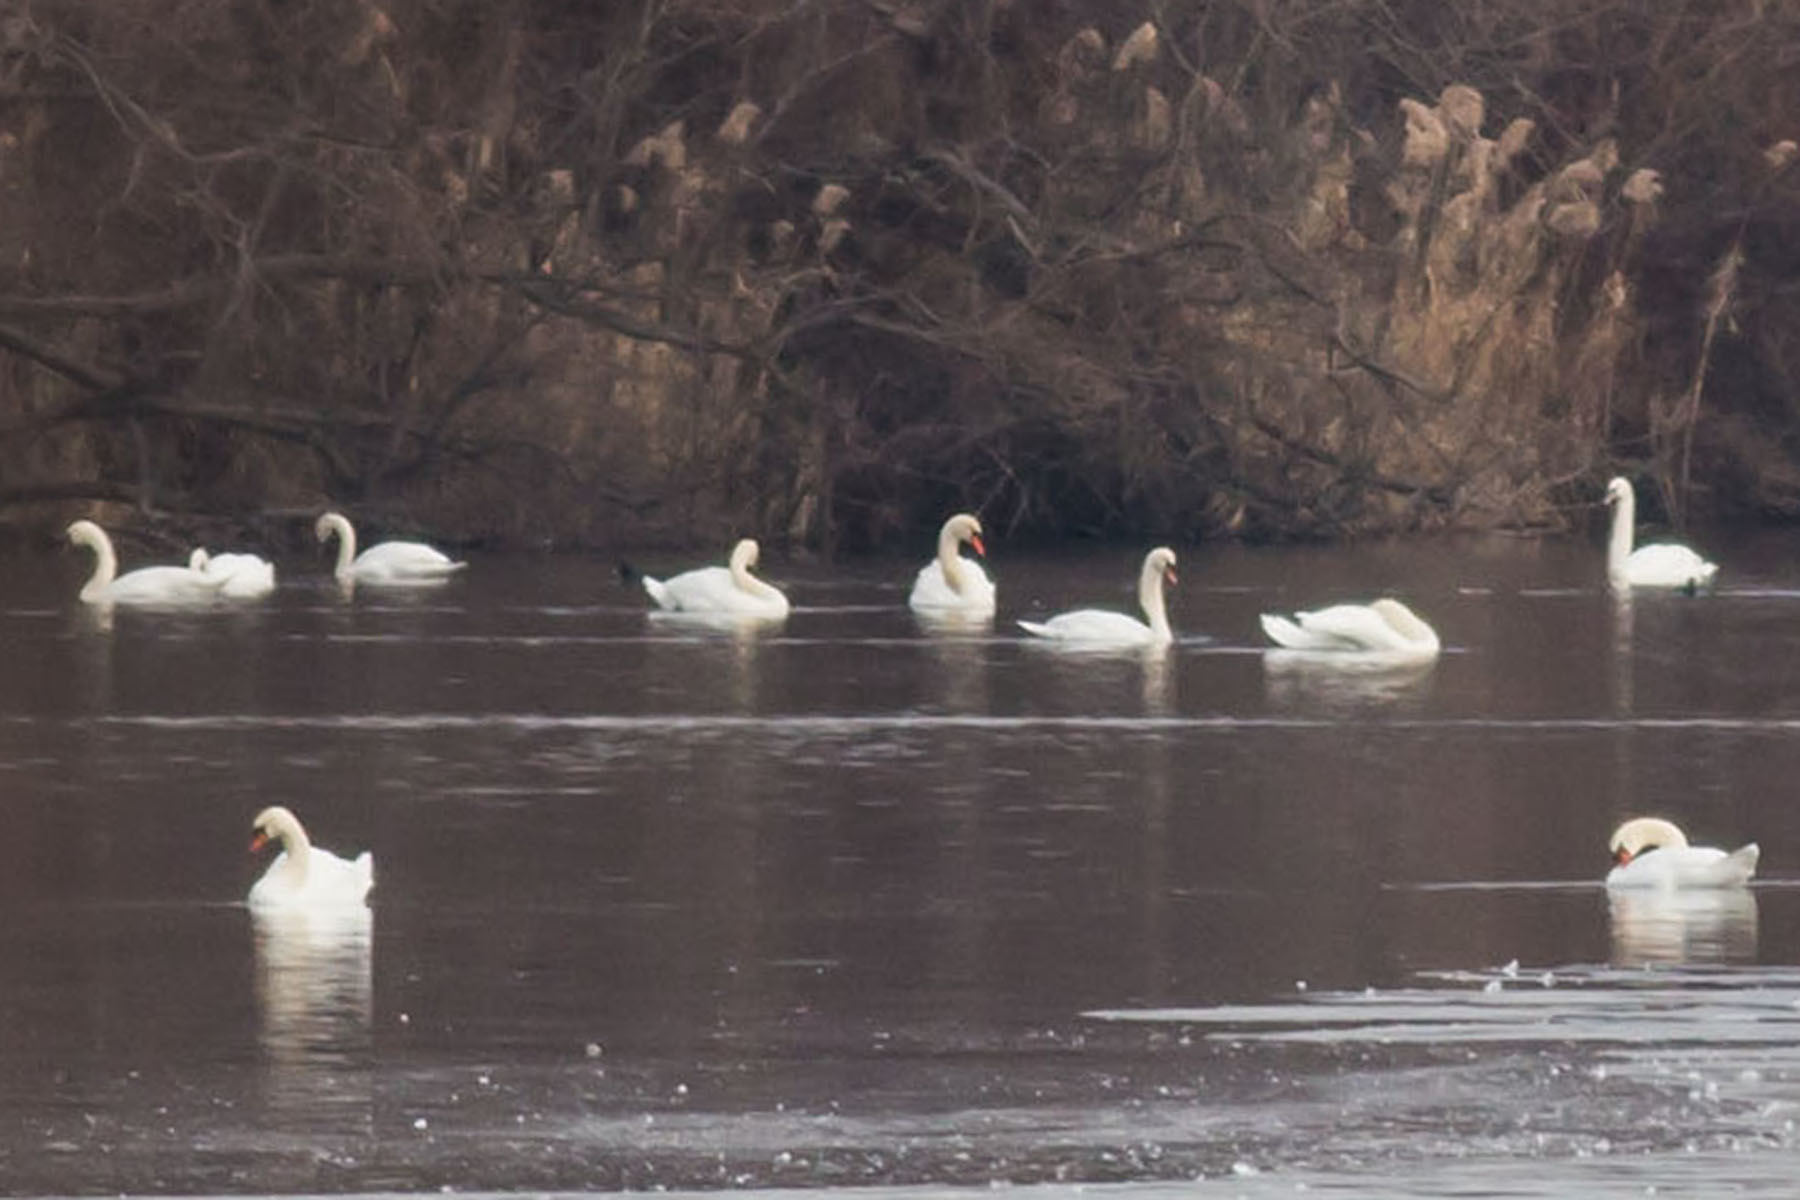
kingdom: Animalia
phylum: Chordata
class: Aves
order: Anseriformes
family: Anatidae
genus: Cygnus
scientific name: Cygnus olor
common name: Mute swan
